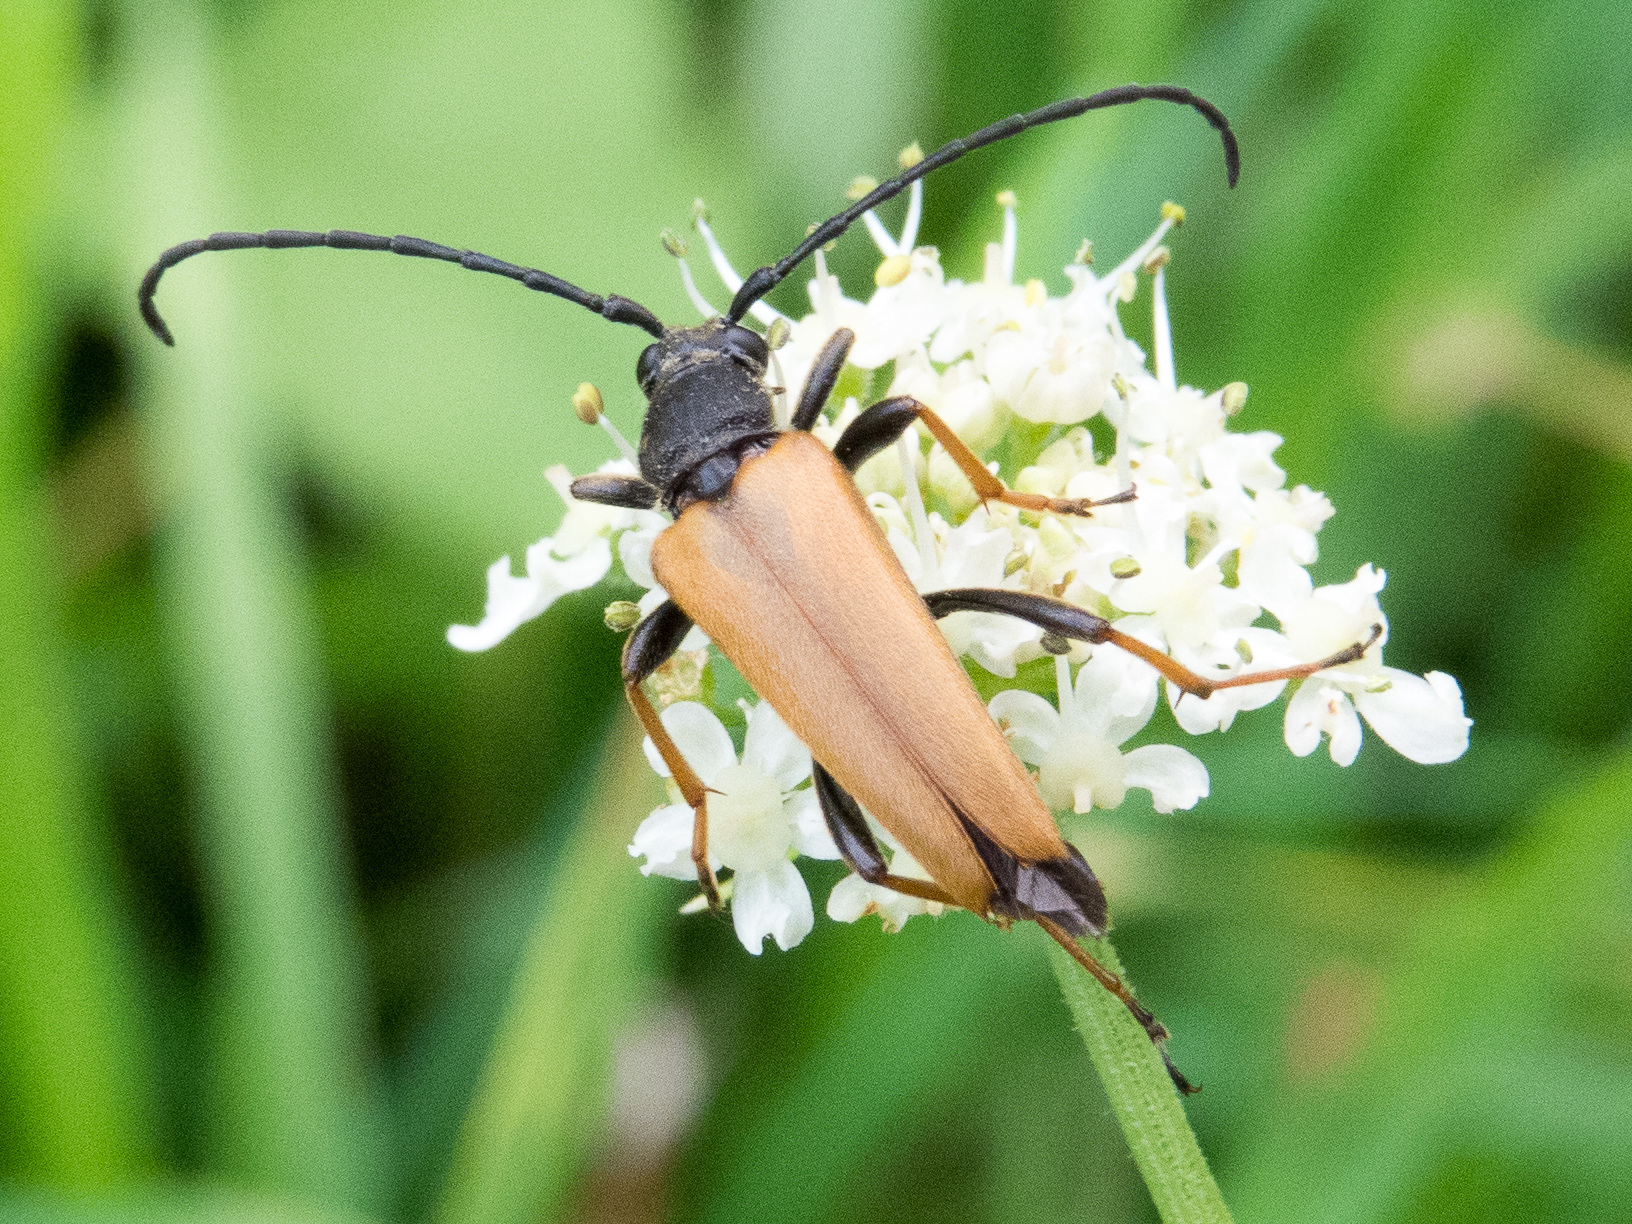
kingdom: Animalia
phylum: Arthropoda
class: Insecta
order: Coleoptera
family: Cerambycidae
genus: Stictoleptura
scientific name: Stictoleptura rubra
